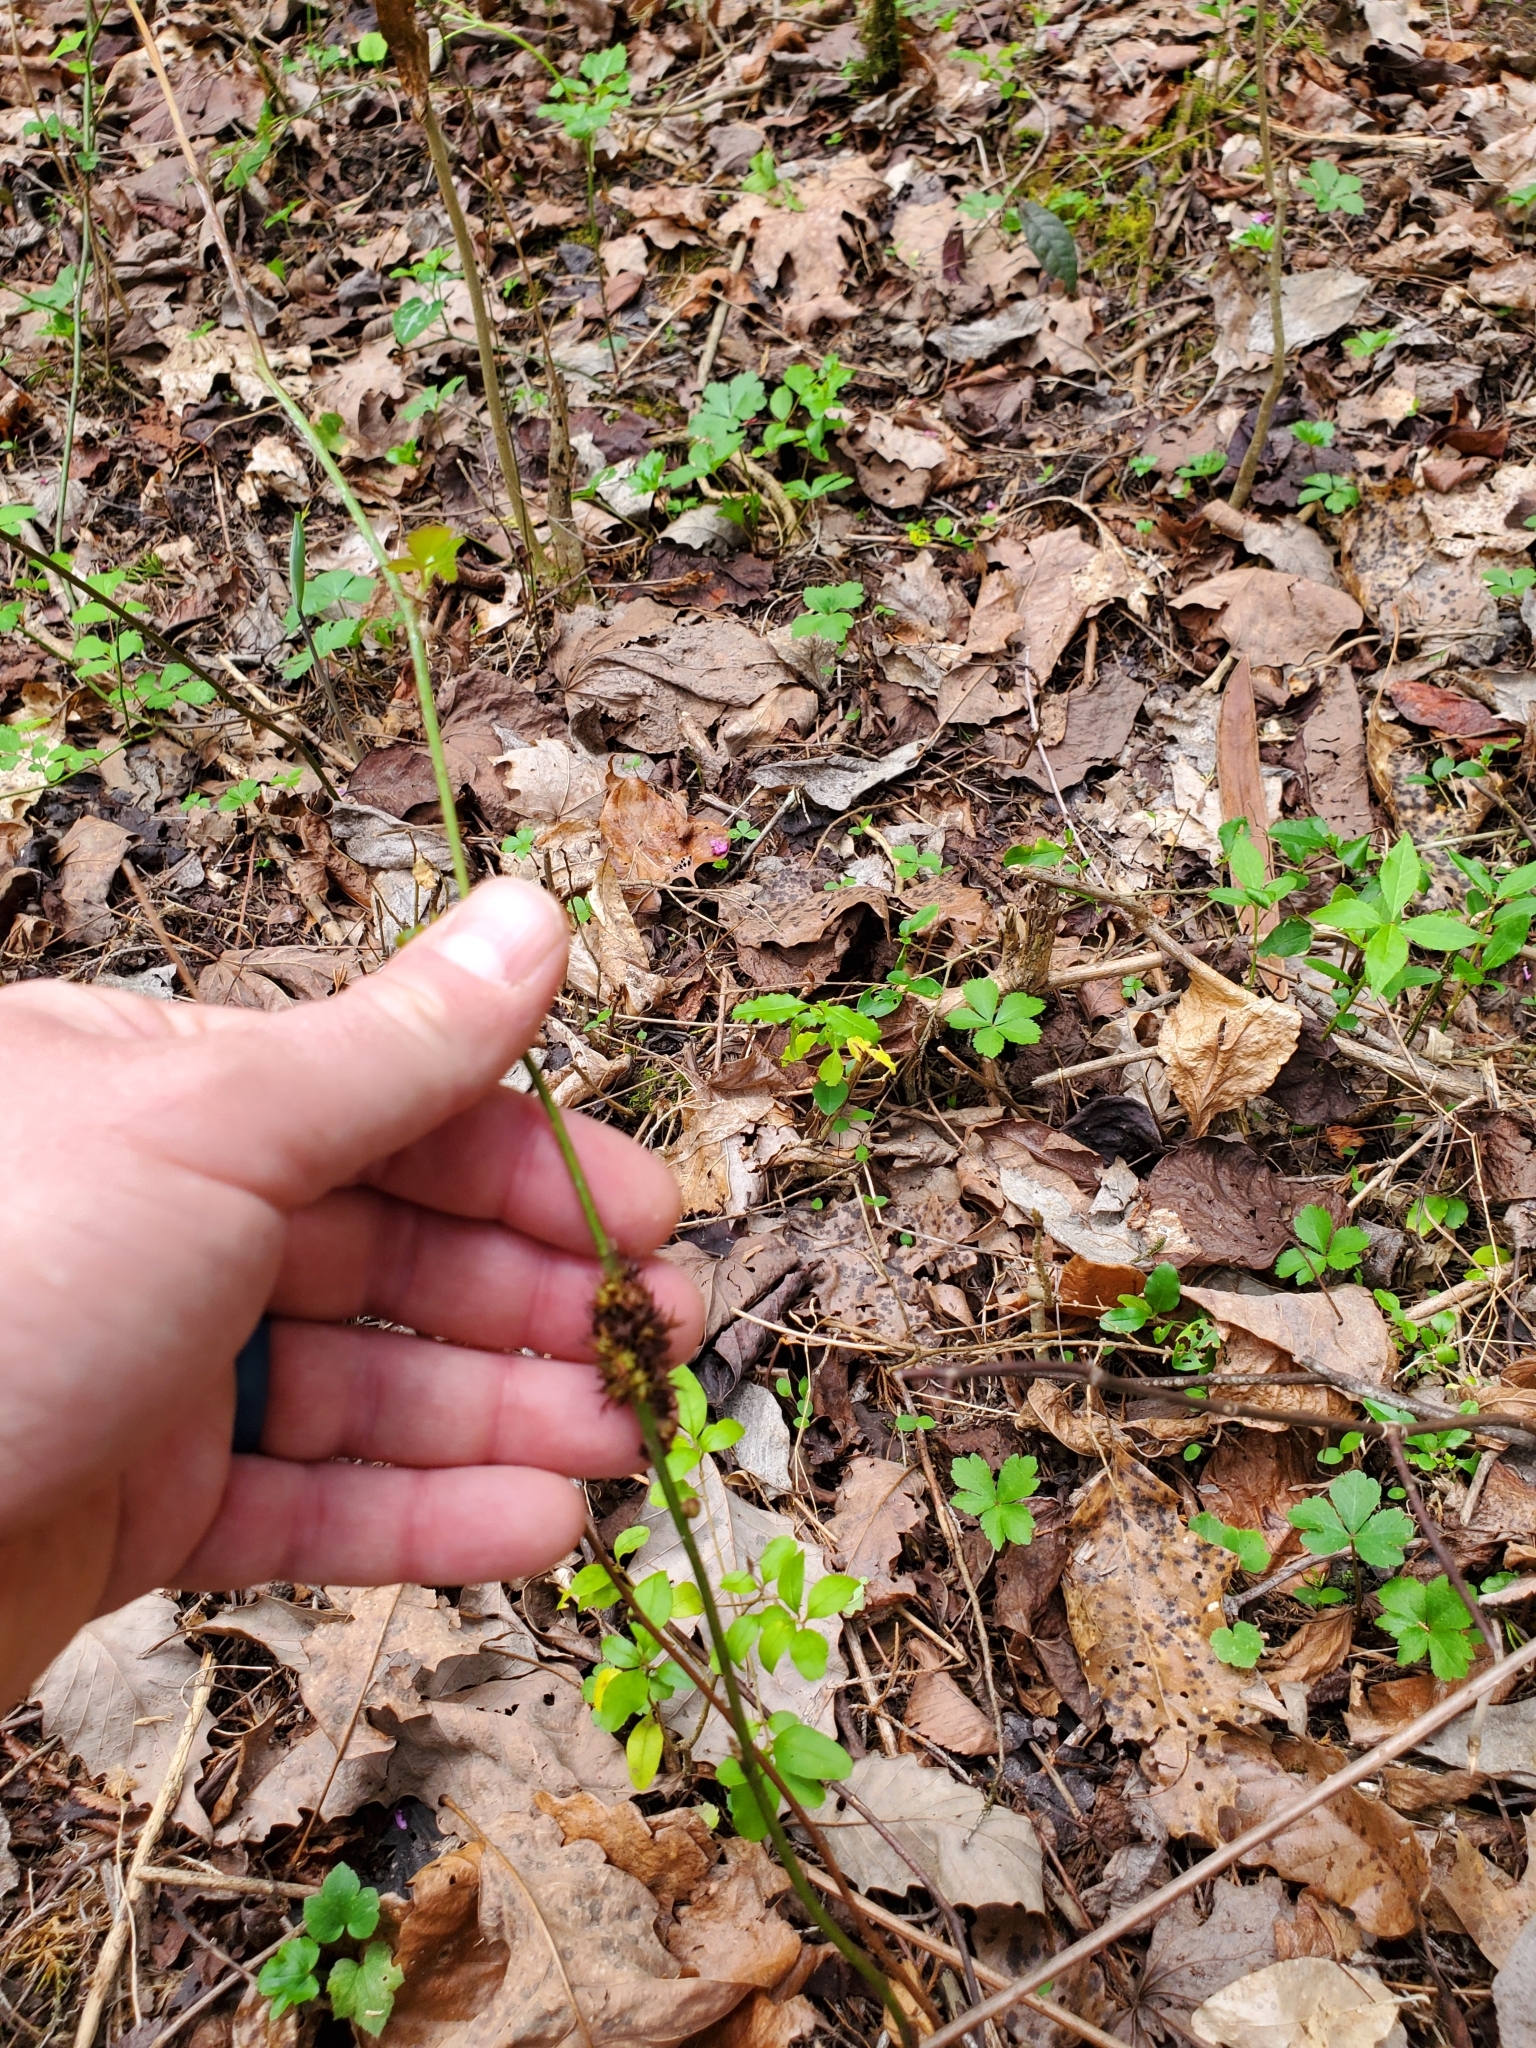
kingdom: Animalia
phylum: Arthropoda
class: Insecta
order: Hymenoptera
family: Cynipidae
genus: Diastrophus
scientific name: Diastrophus
